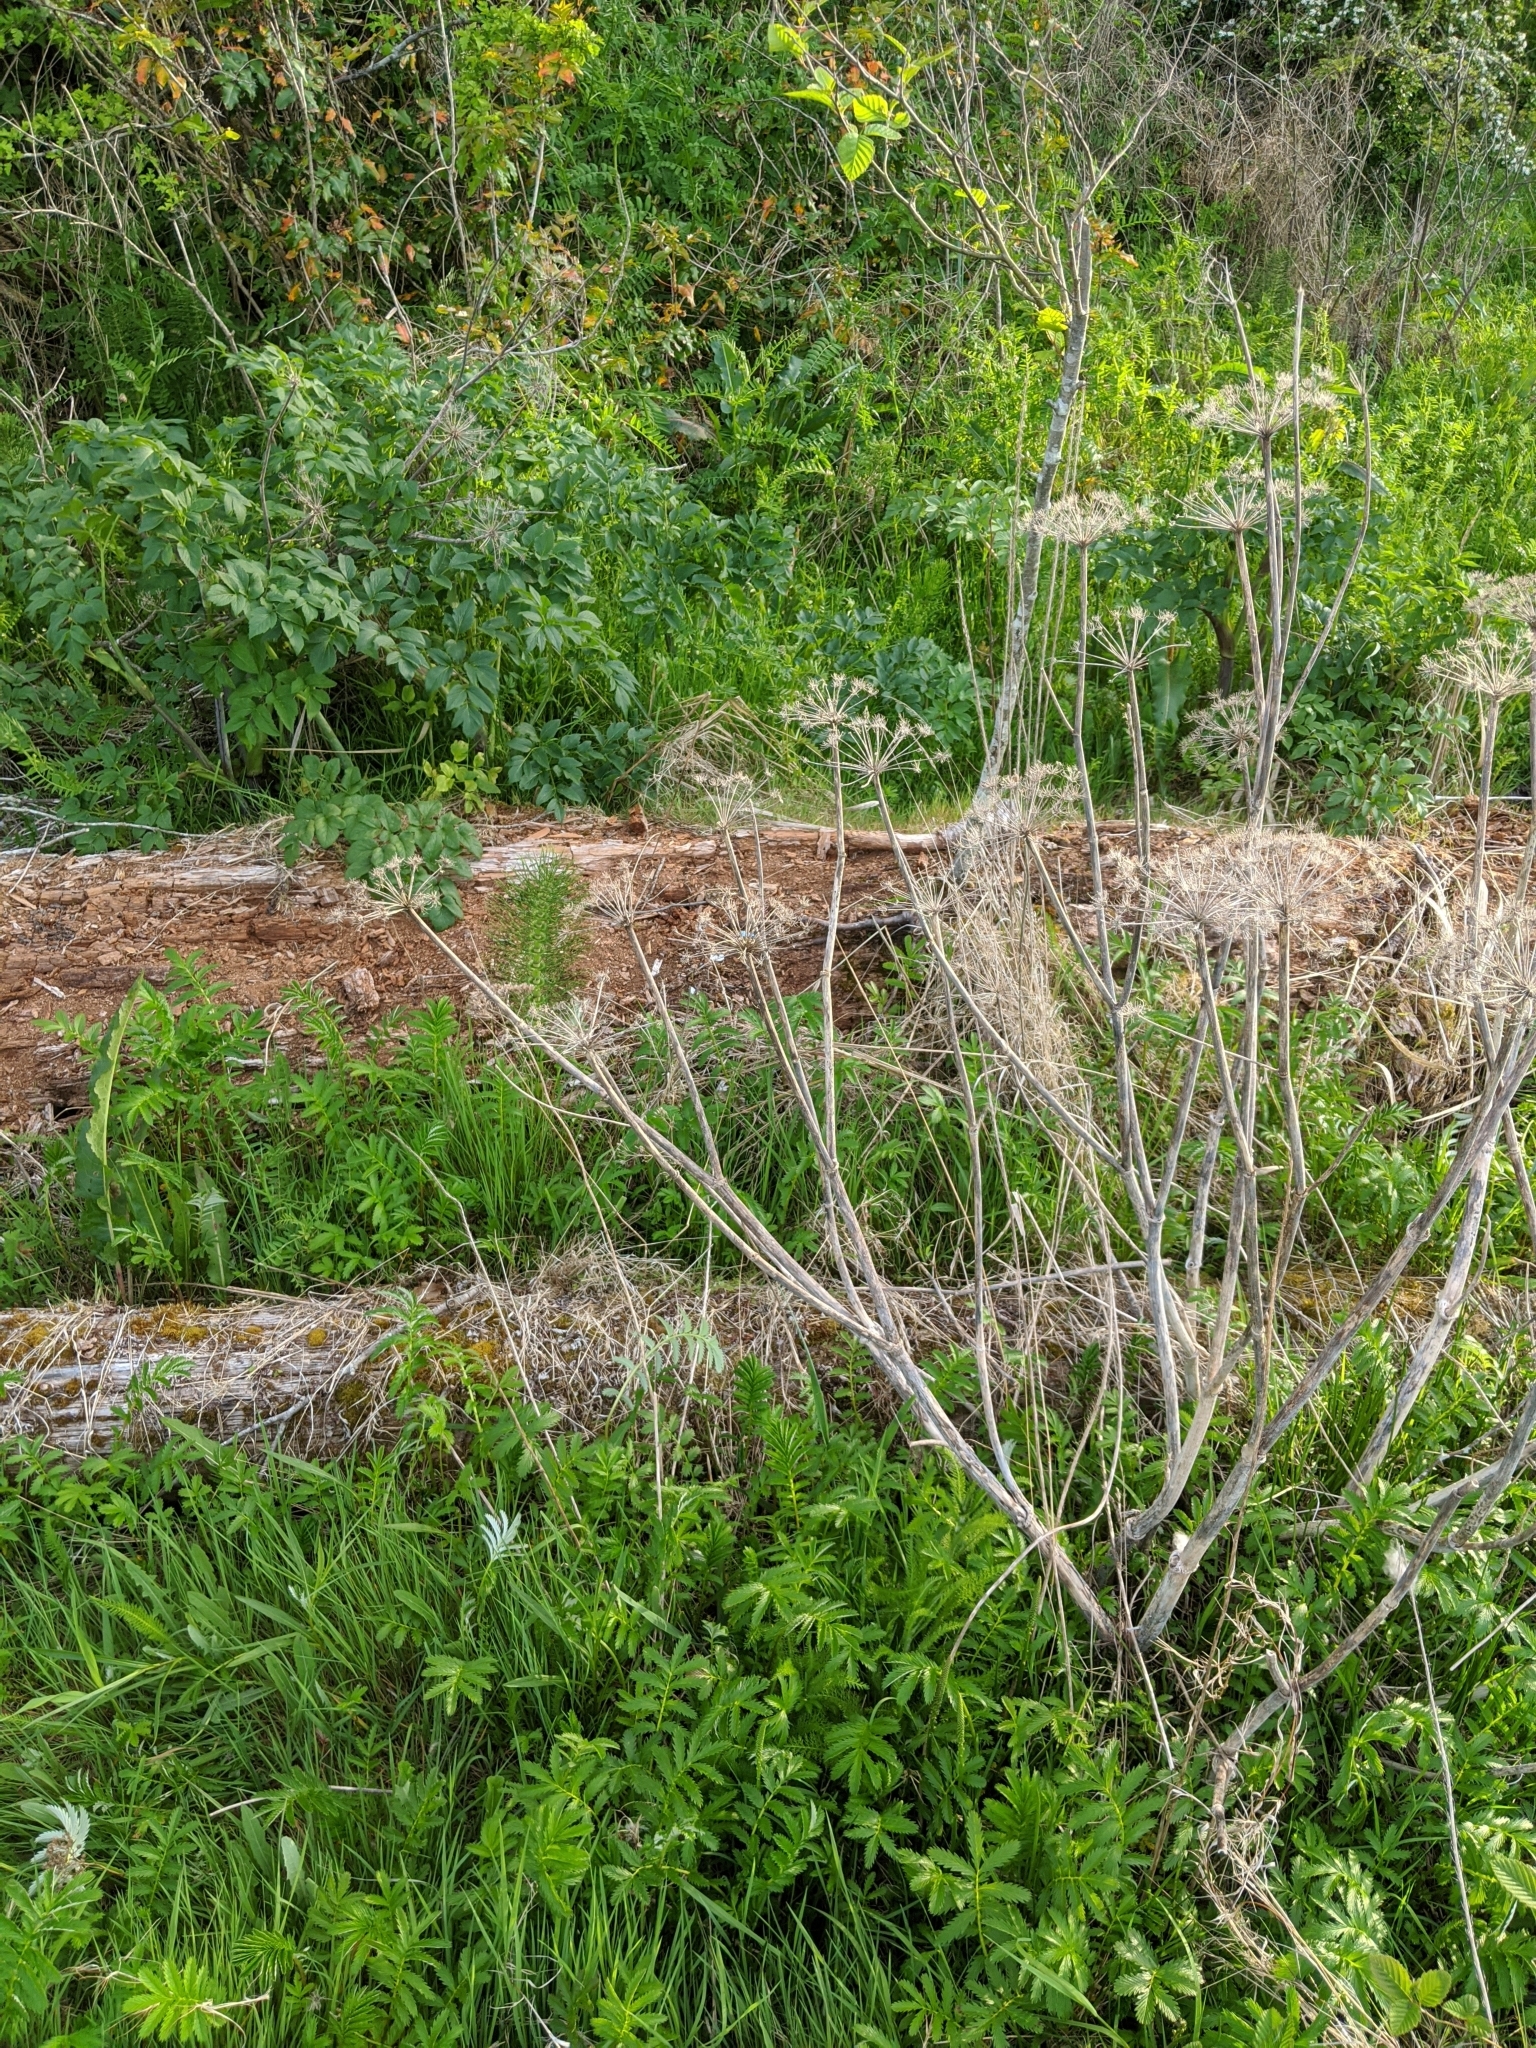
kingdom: Plantae
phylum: Tracheophyta
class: Magnoliopsida
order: Apiales
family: Apiaceae
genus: Angelica
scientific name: Angelica lucida
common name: Seabeach angelica
